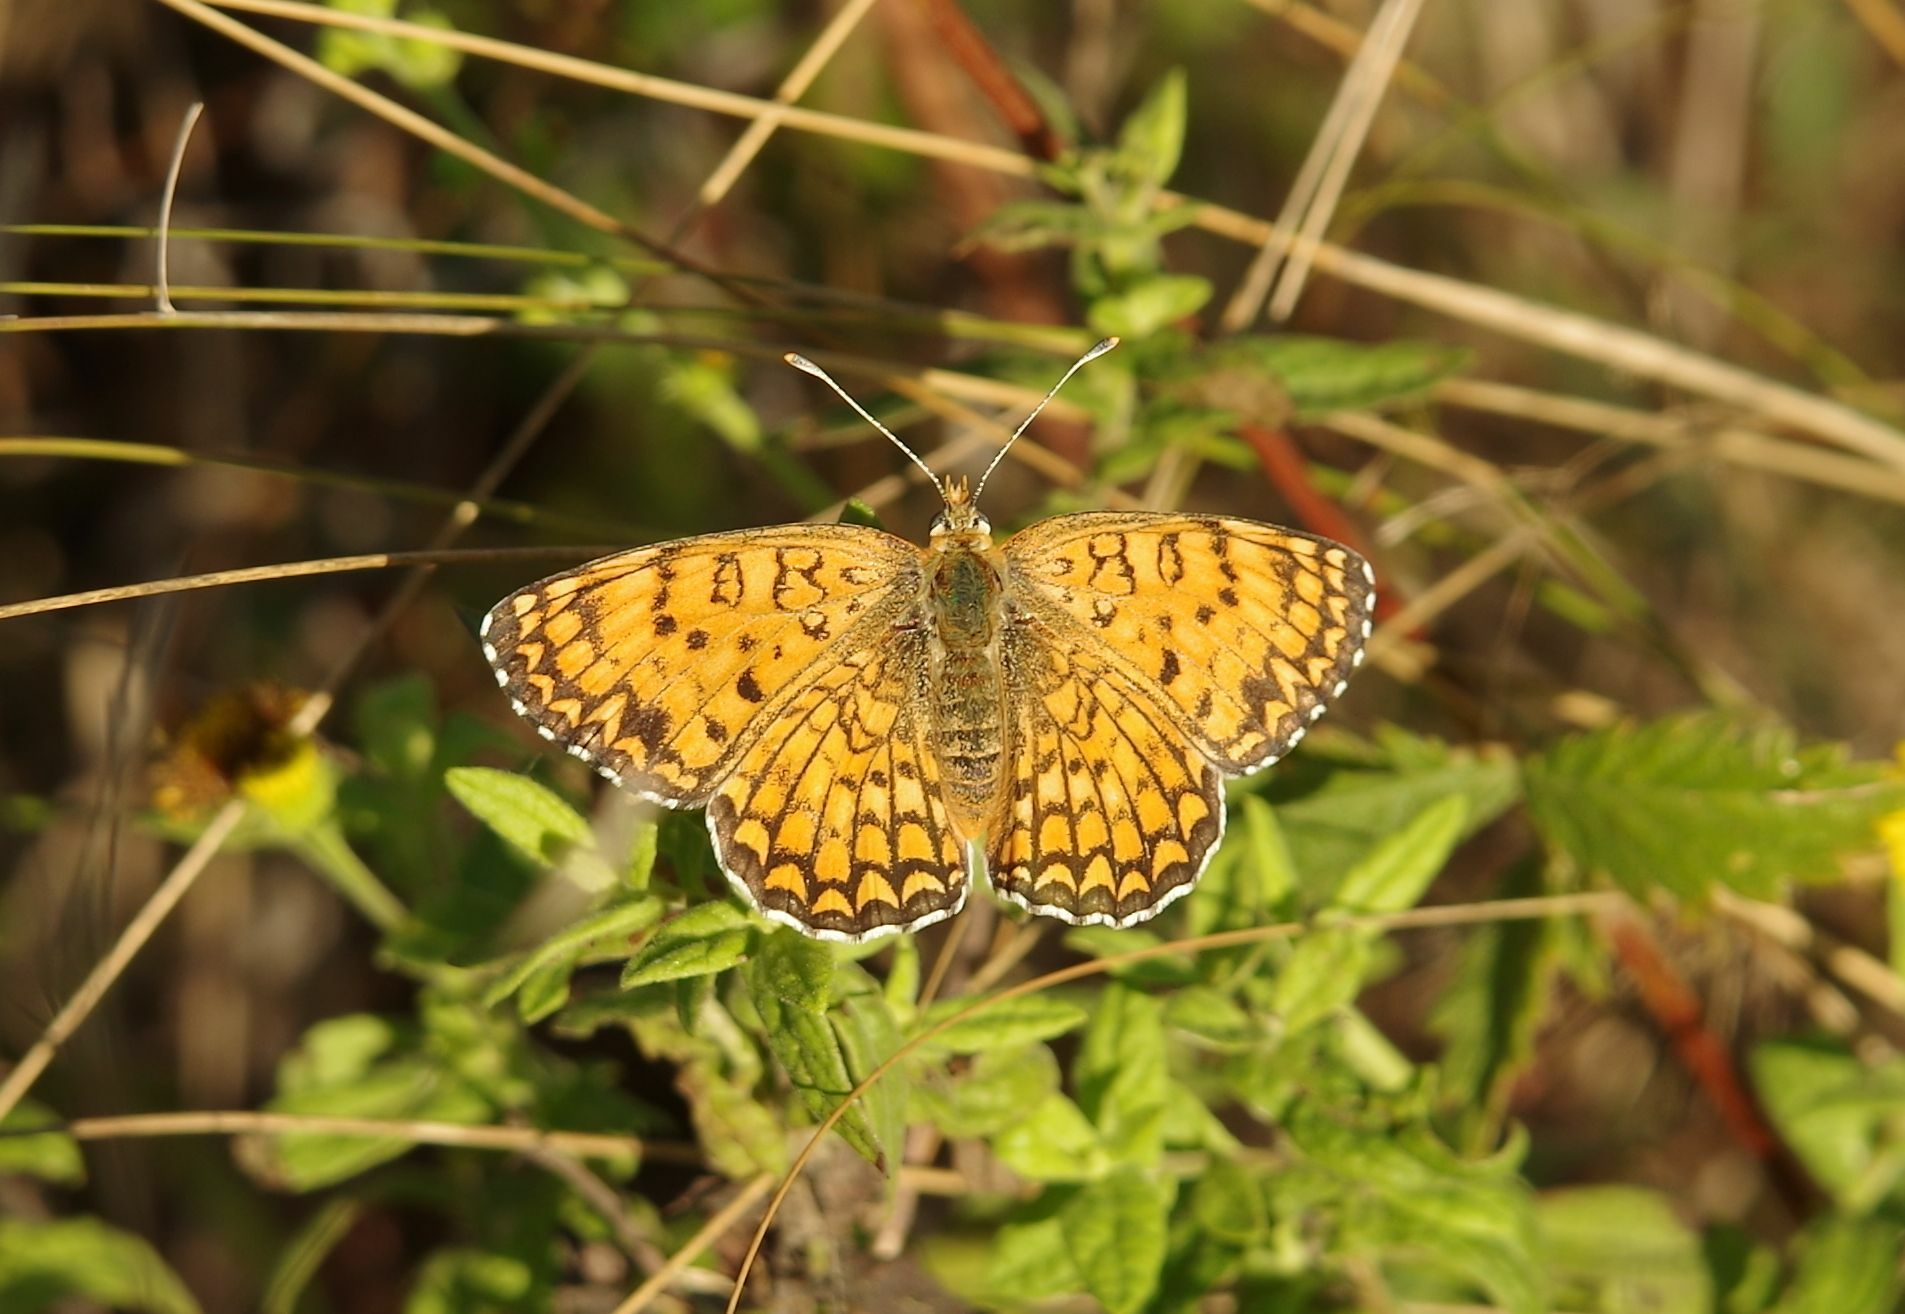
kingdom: Animalia
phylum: Arthropoda
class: Insecta
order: Lepidoptera
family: Nymphalidae
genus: Melitaea
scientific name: Melitaea phoebe
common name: Knapweed fritillary
